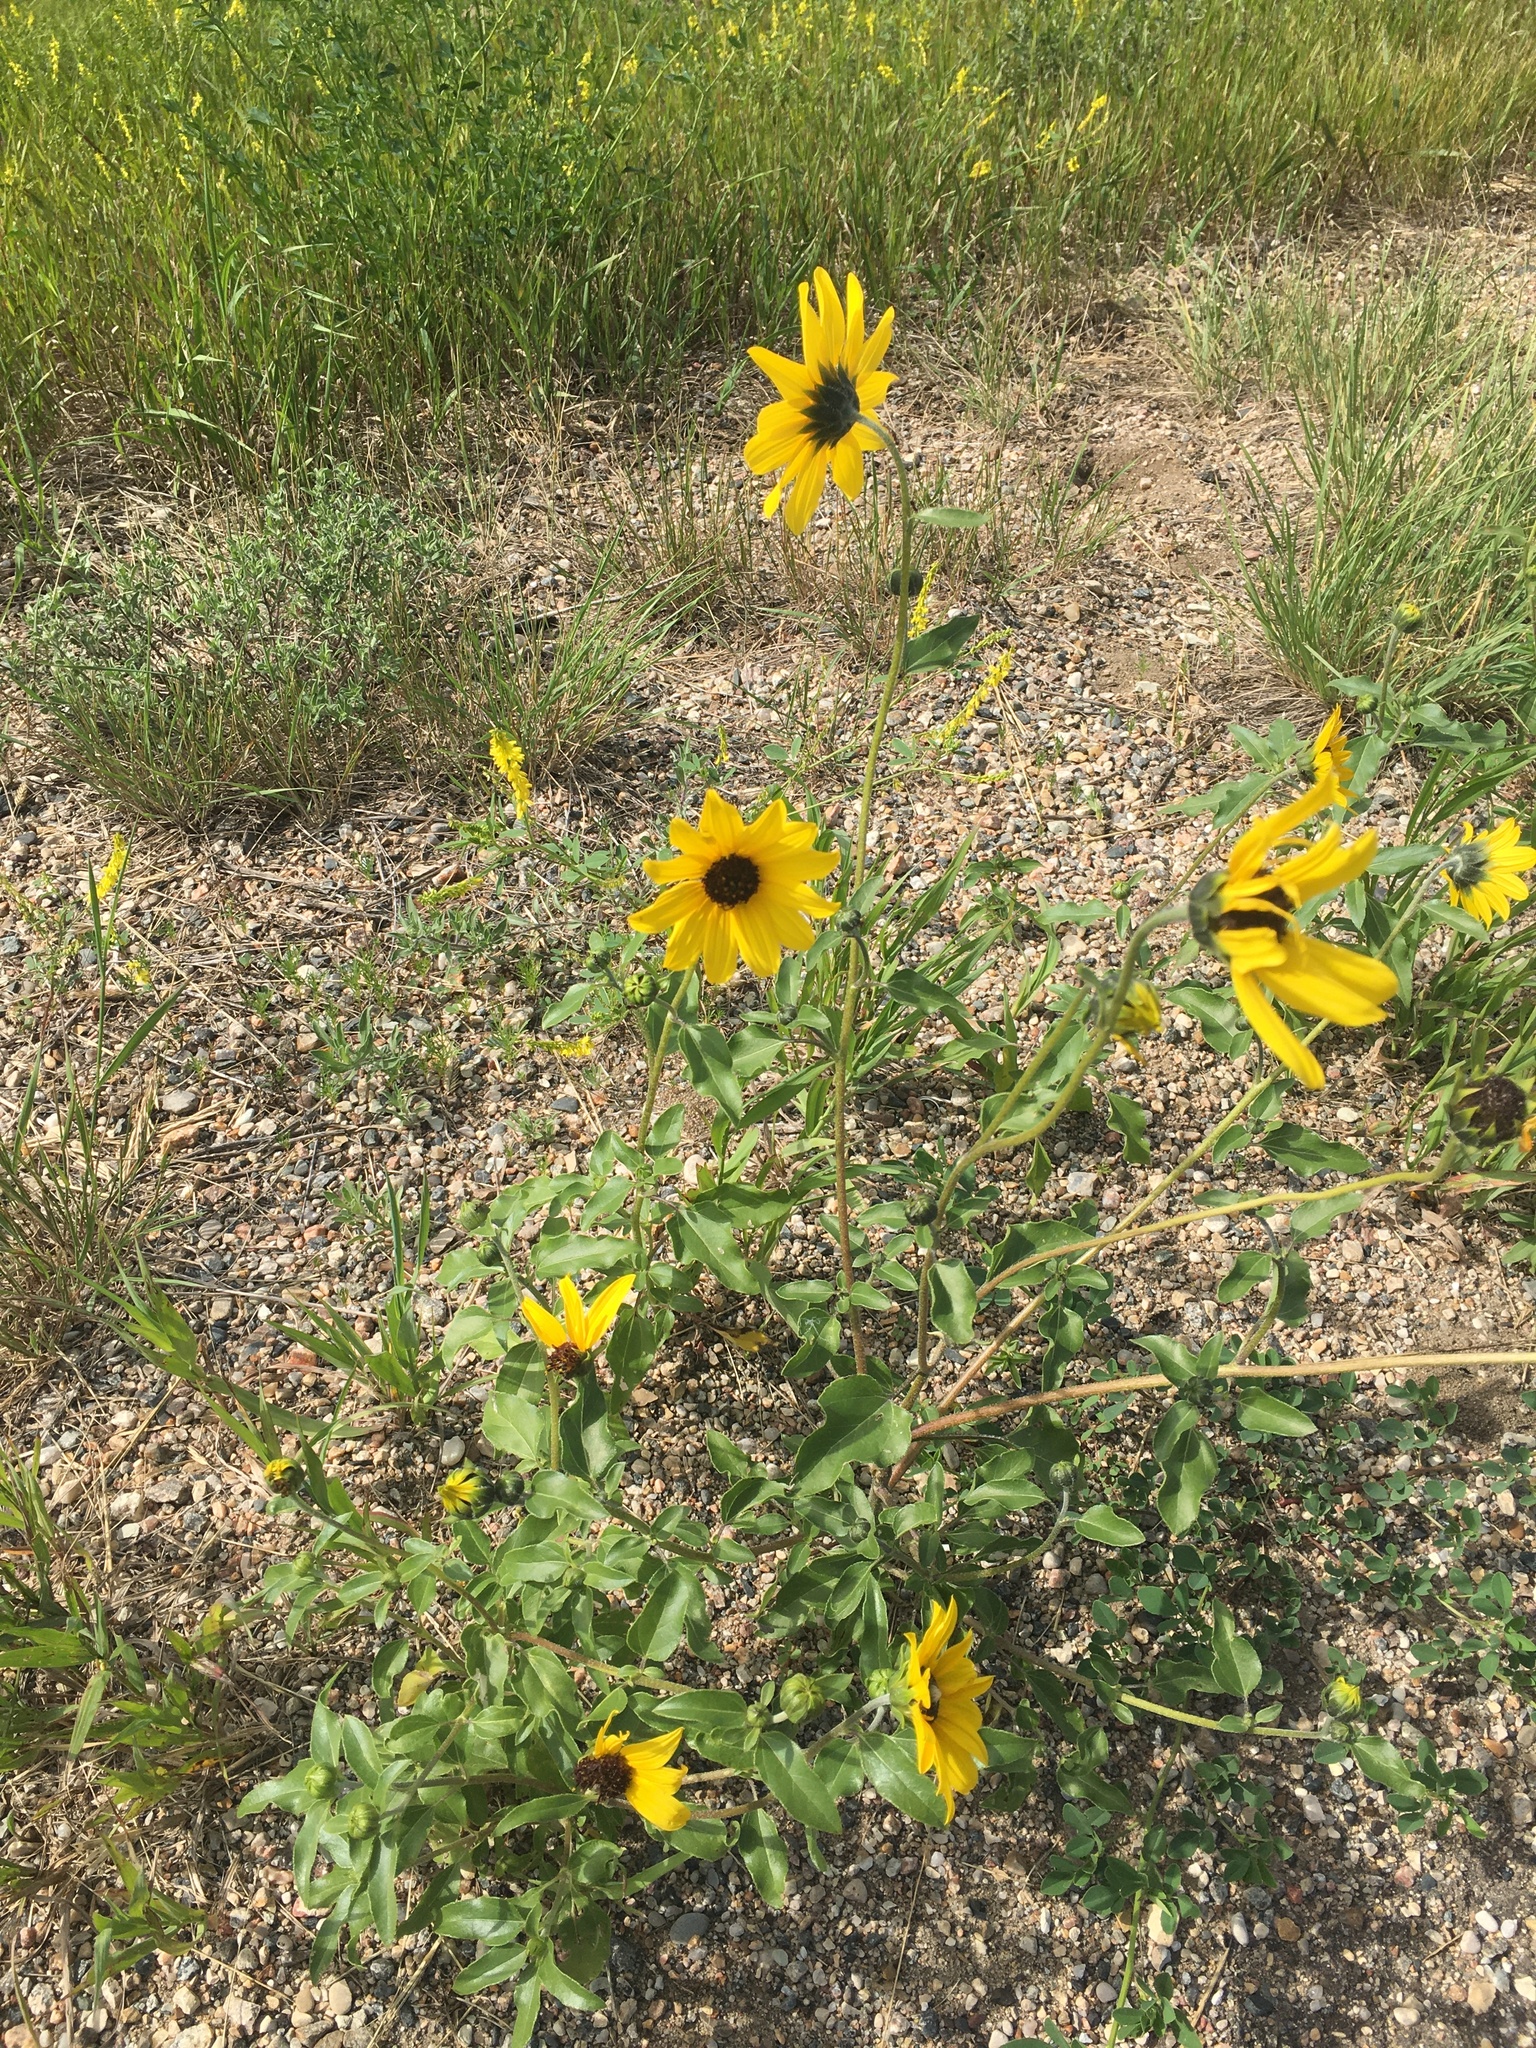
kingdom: Plantae
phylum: Tracheophyta
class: Magnoliopsida
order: Asterales
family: Asteraceae
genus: Helianthus
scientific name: Helianthus petiolaris
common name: Lesser sunflower
